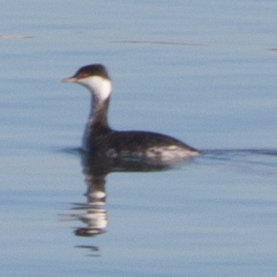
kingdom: Animalia
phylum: Chordata
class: Aves
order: Podicipediformes
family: Podicipedidae
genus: Podiceps
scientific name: Podiceps auritus
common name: Horned grebe
